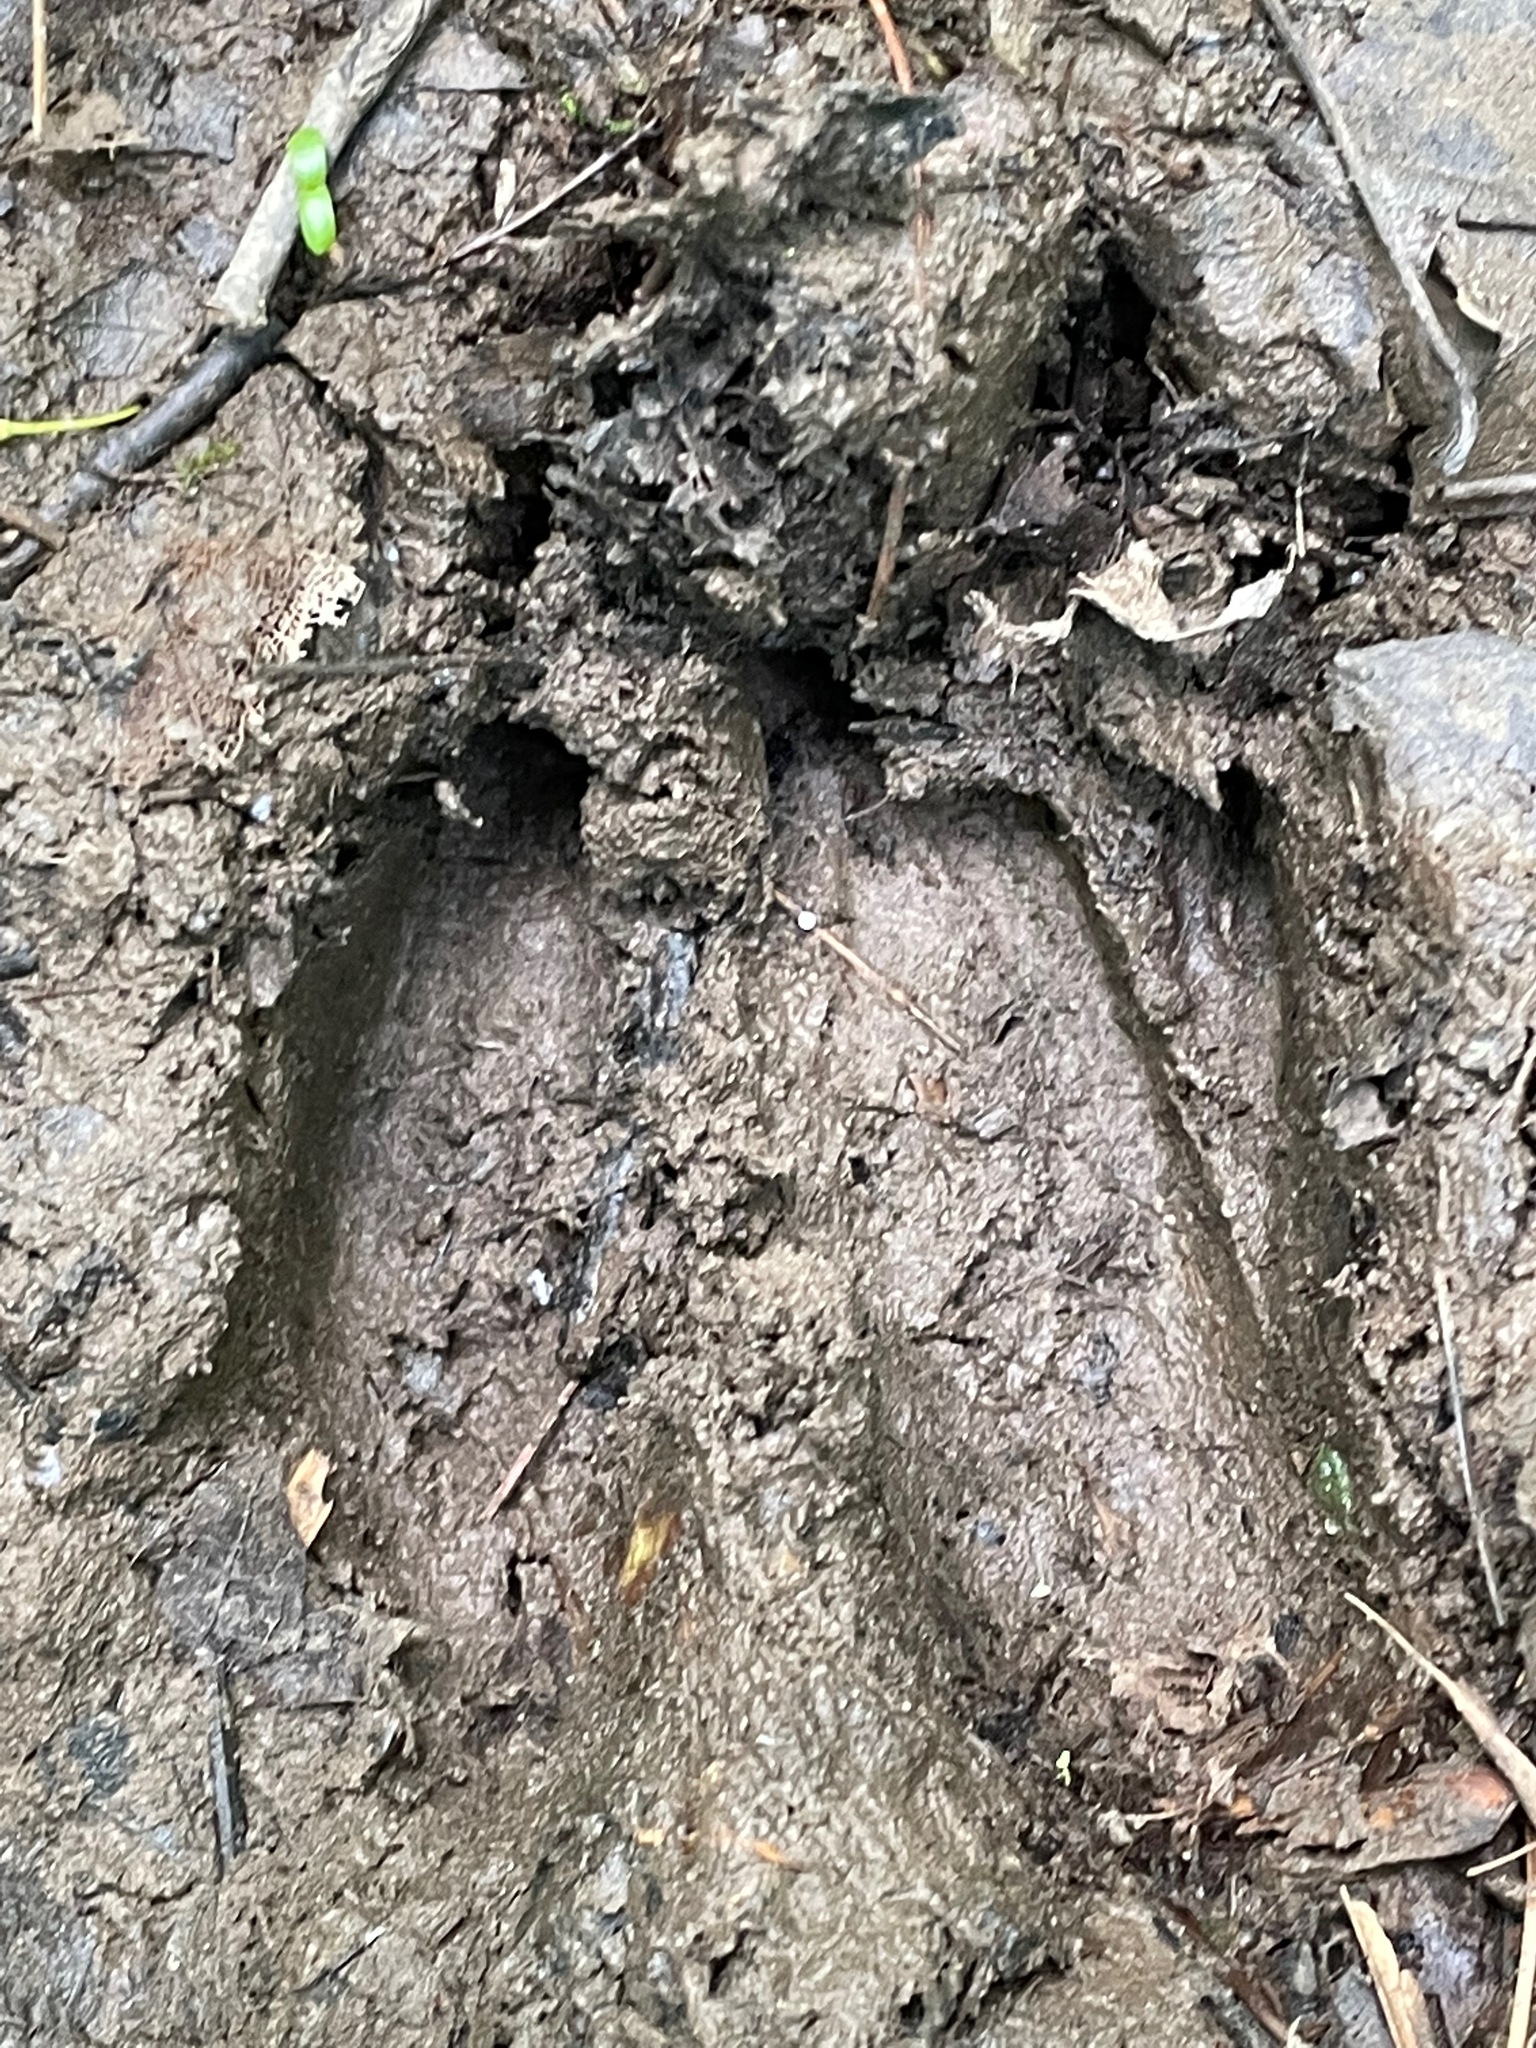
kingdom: Animalia
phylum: Chordata
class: Mammalia
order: Artiodactyla
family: Cervidae
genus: Odocoileus
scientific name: Odocoileus virginianus
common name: White-tailed deer
